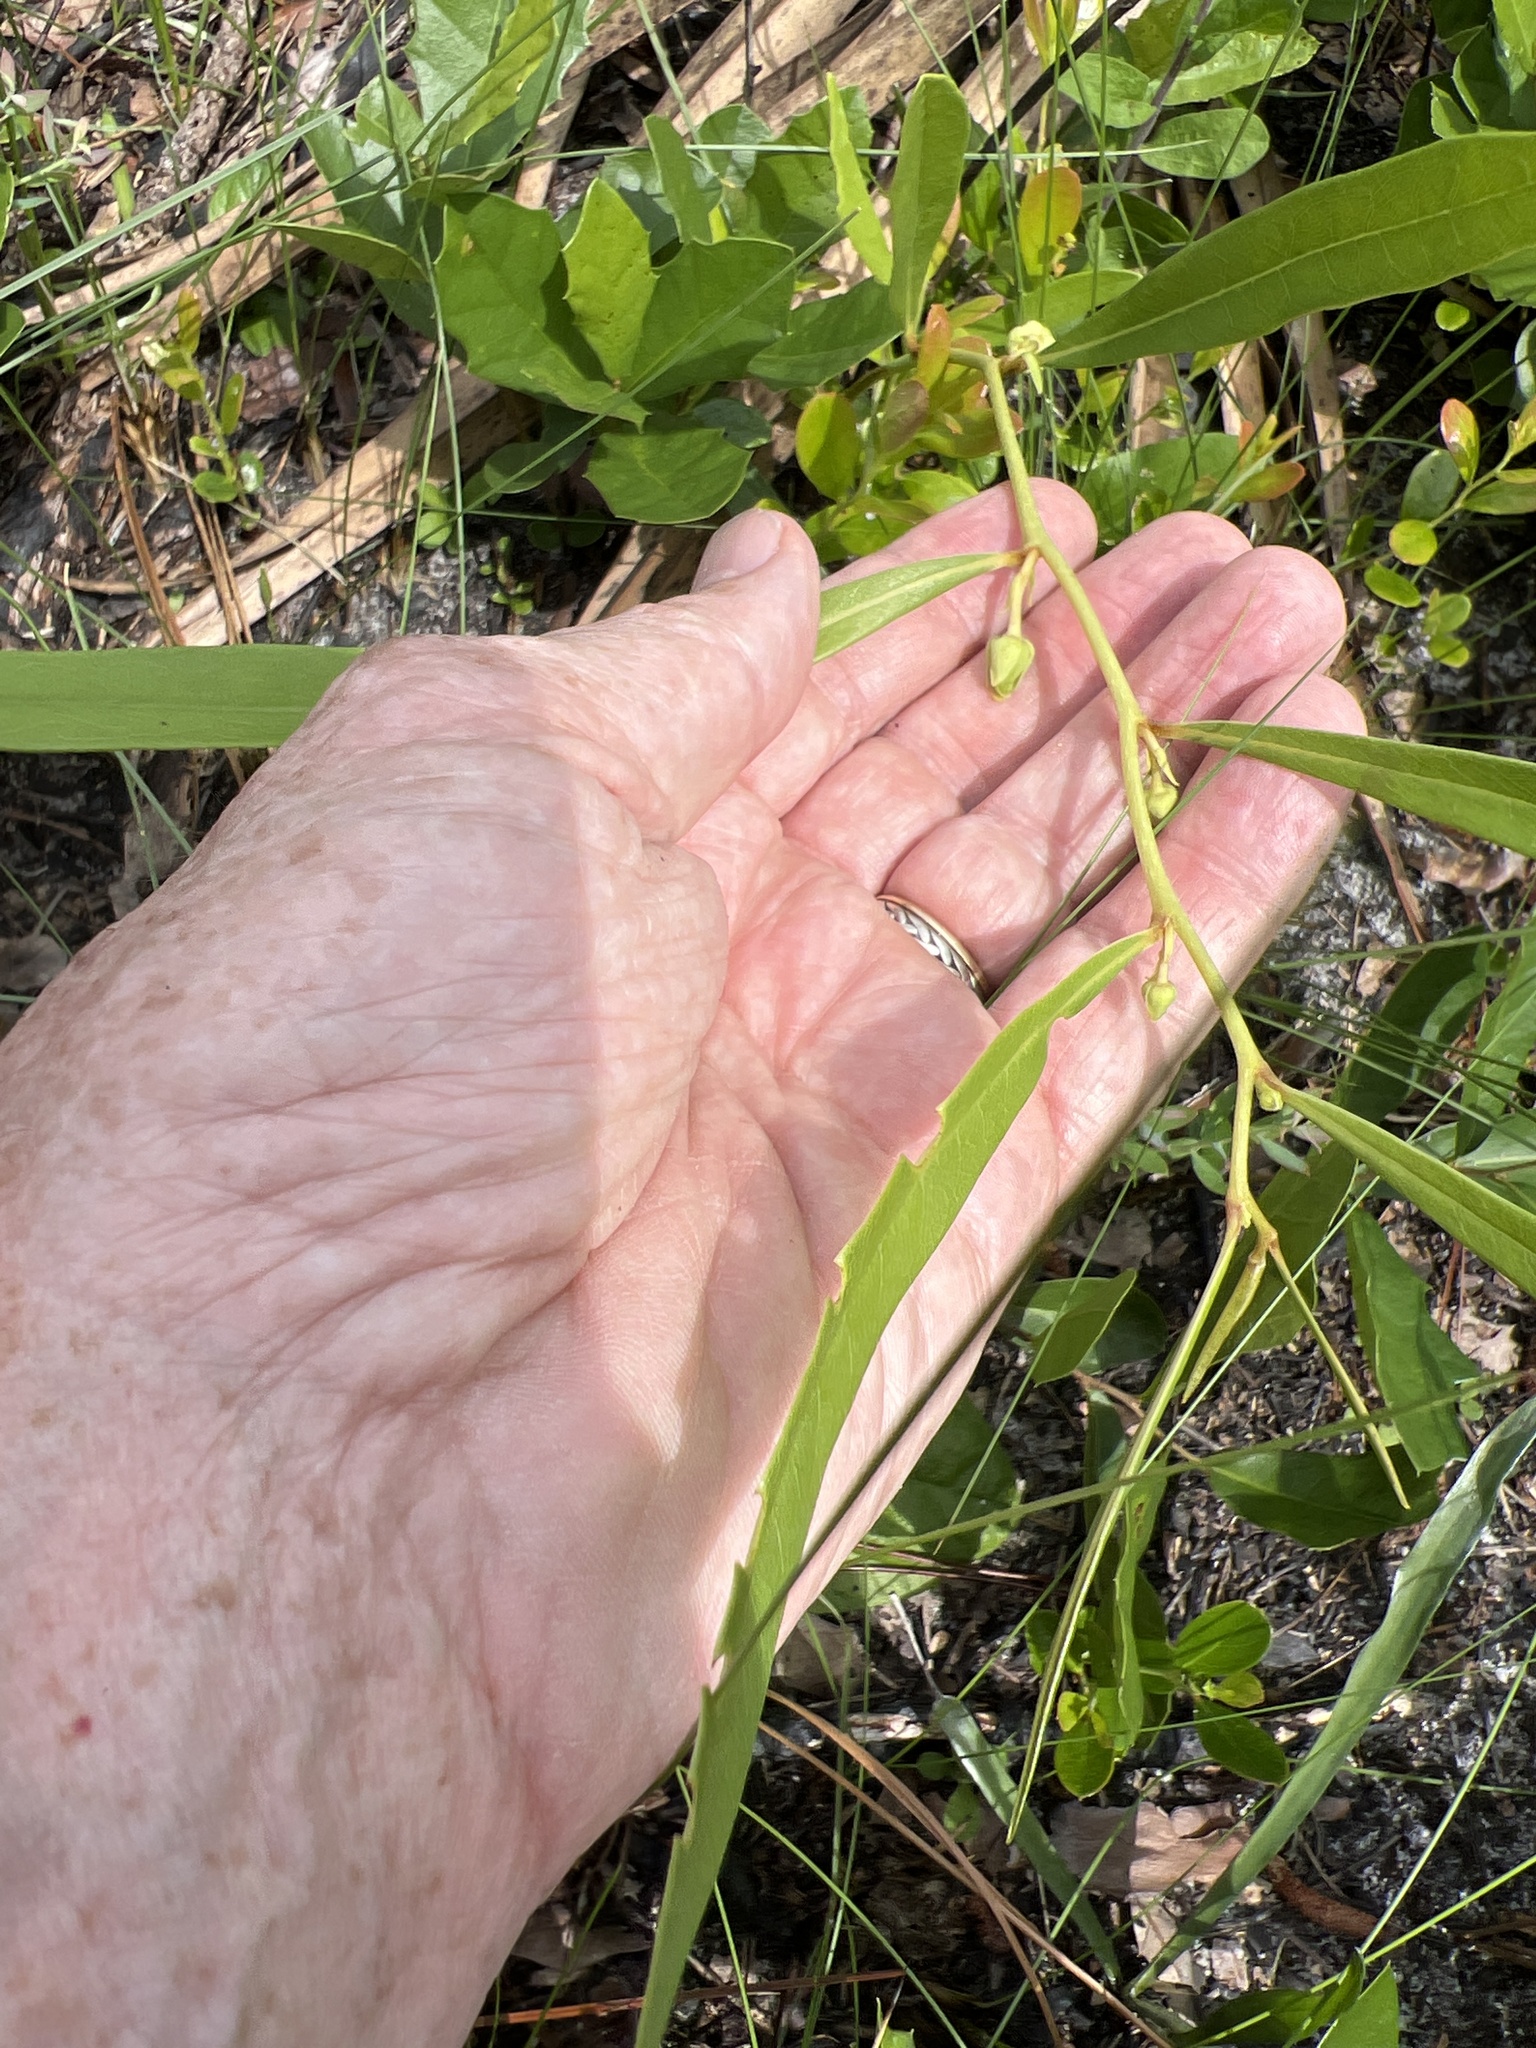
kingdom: Plantae
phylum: Tracheophyta
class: Magnoliopsida
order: Magnoliales
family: Annonaceae
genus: Asimina
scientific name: Asimina longifolia
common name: Polecatbush
